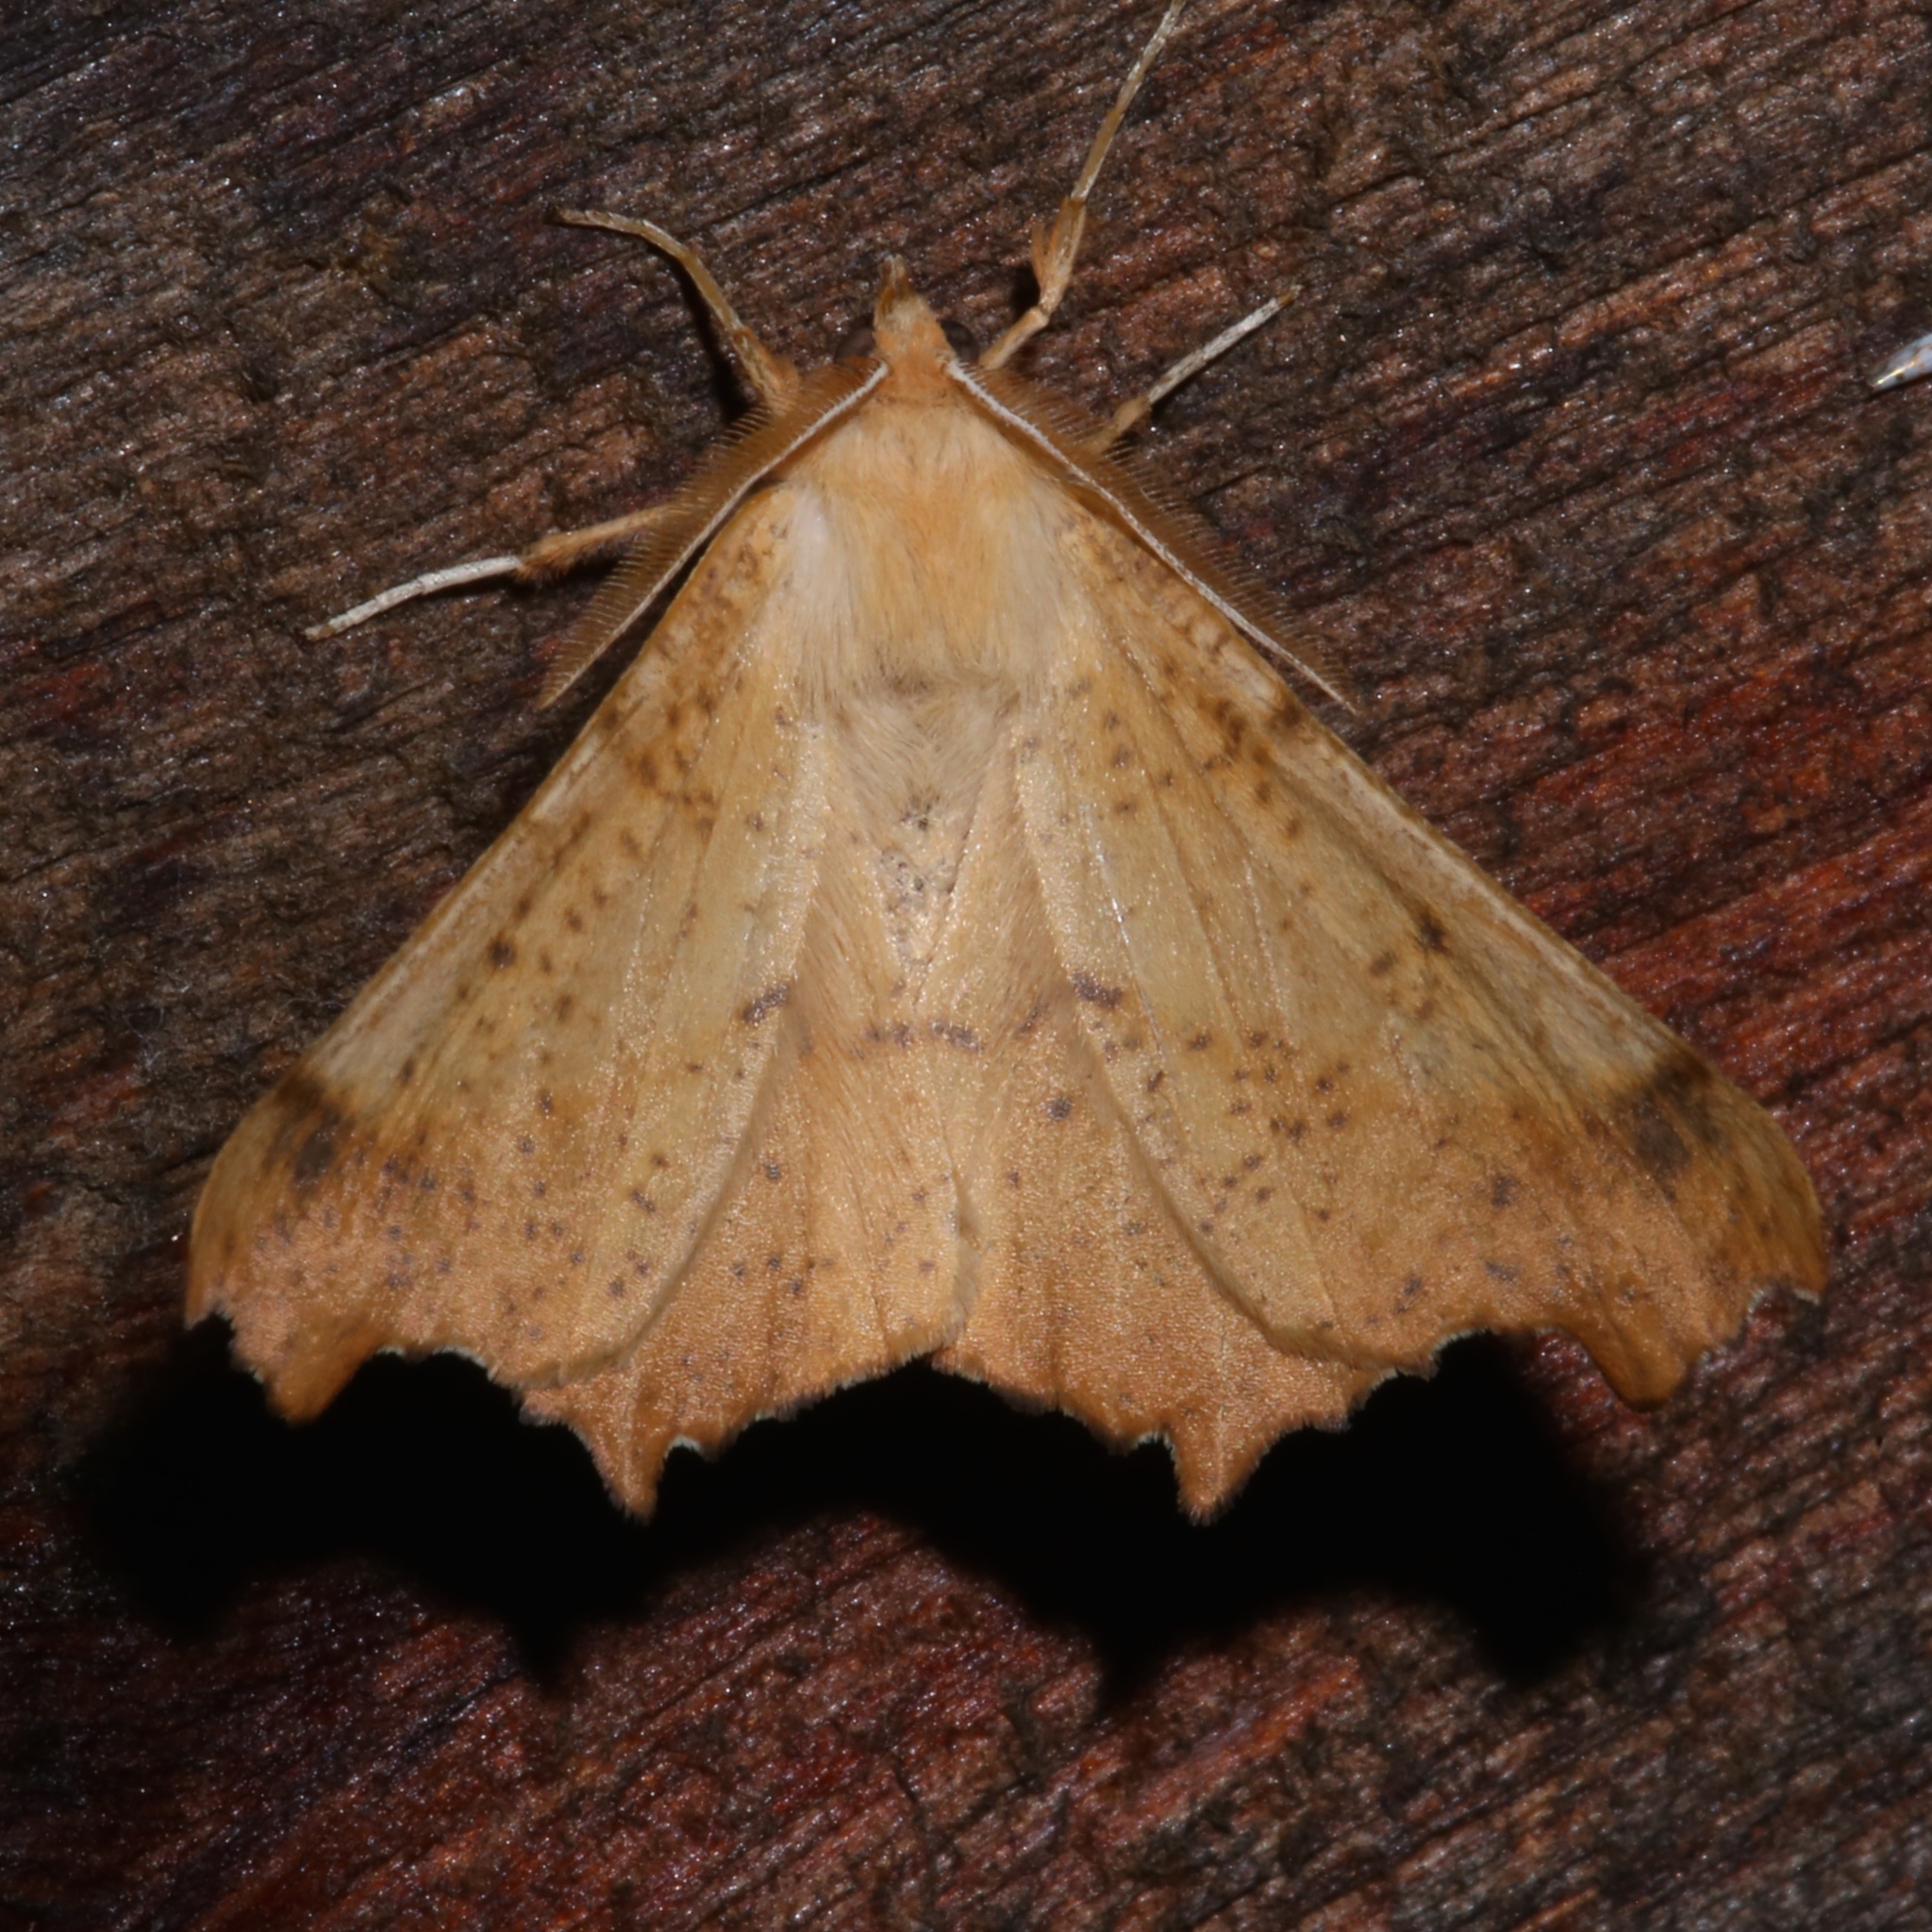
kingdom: Animalia
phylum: Arthropoda
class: Insecta
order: Lepidoptera
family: Geometridae
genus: Ennomos
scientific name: Ennomos magnaria
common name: Maple spanworm
